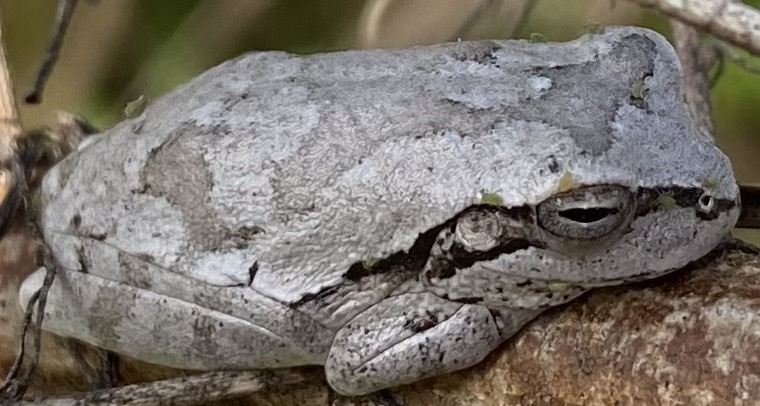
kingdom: Animalia
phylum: Chordata
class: Amphibia
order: Anura
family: Hylidae
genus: Hyla
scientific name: Hyla femoralis
